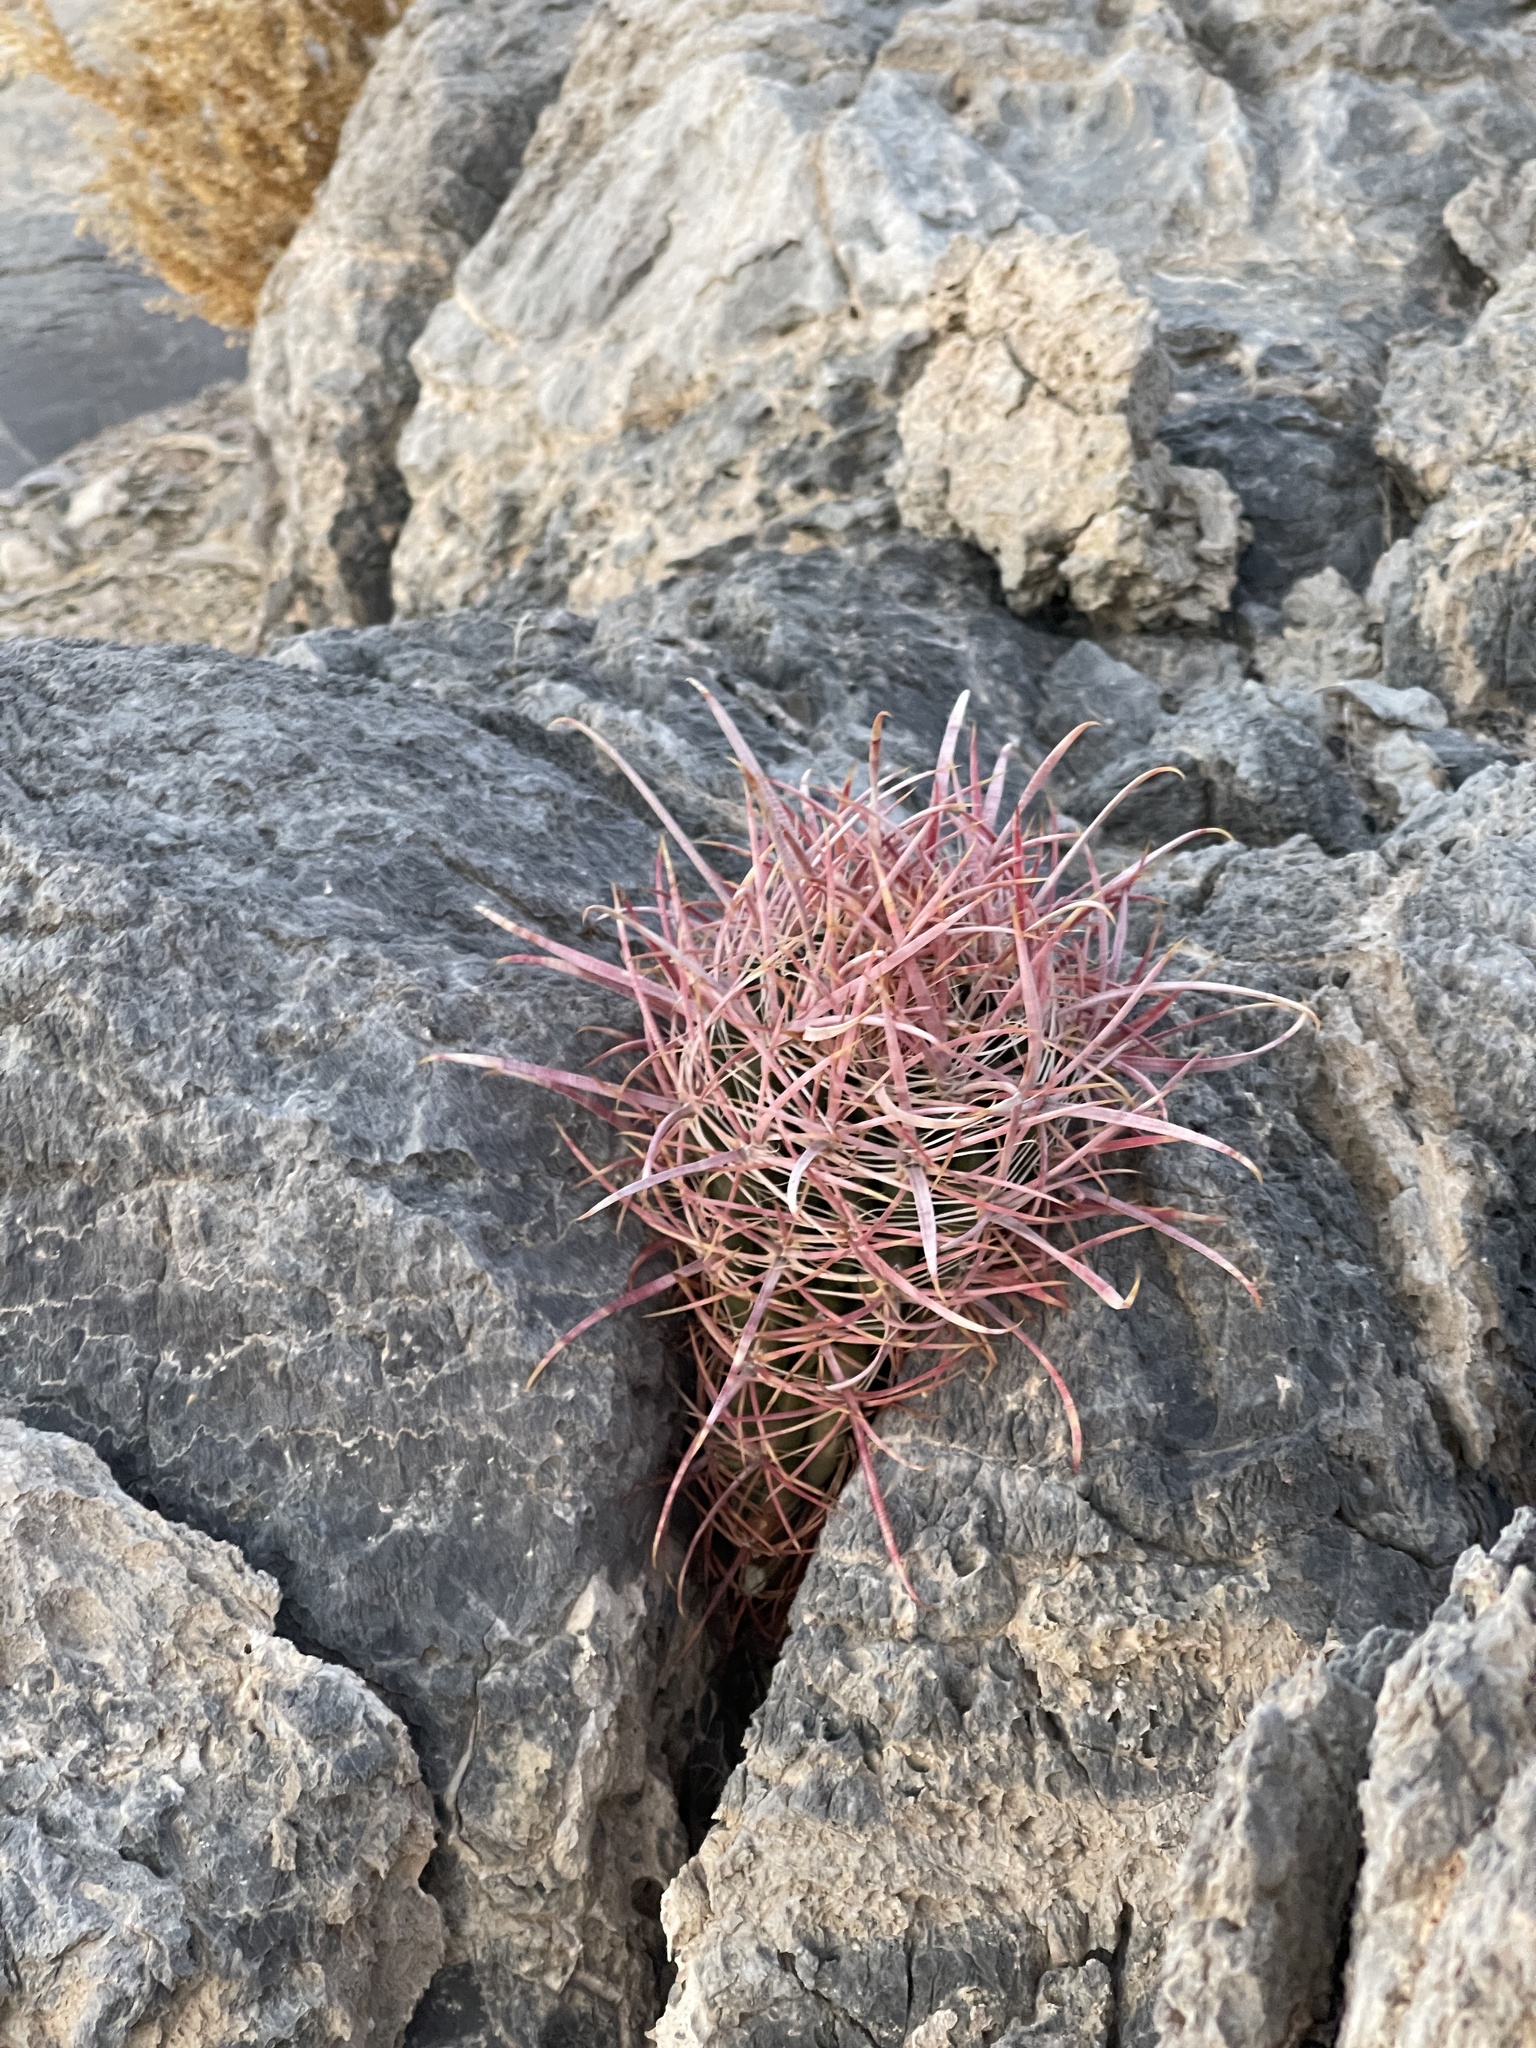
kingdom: Plantae
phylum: Tracheophyta
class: Magnoliopsida
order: Caryophyllales
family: Cactaceae
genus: Ferocactus
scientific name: Ferocactus cylindraceus
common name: California barrel cactus
